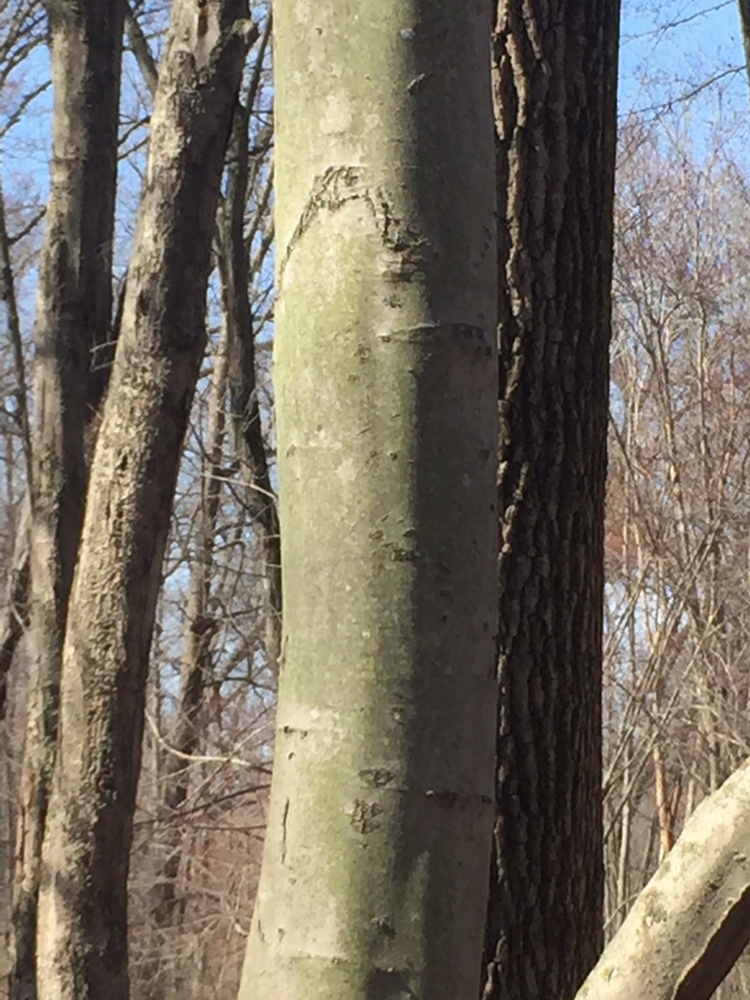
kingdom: Plantae
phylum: Tracheophyta
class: Magnoliopsida
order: Fagales
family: Fagaceae
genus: Fagus
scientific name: Fagus grandifolia
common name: American beech
